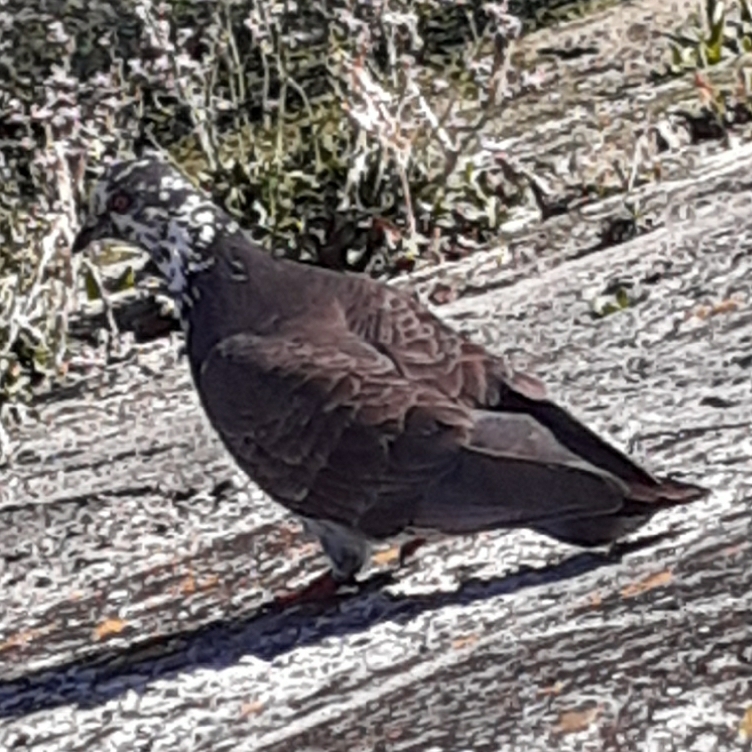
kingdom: Animalia
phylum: Chordata
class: Aves
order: Columbiformes
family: Columbidae
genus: Columba
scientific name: Columba livia
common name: Rock pigeon
